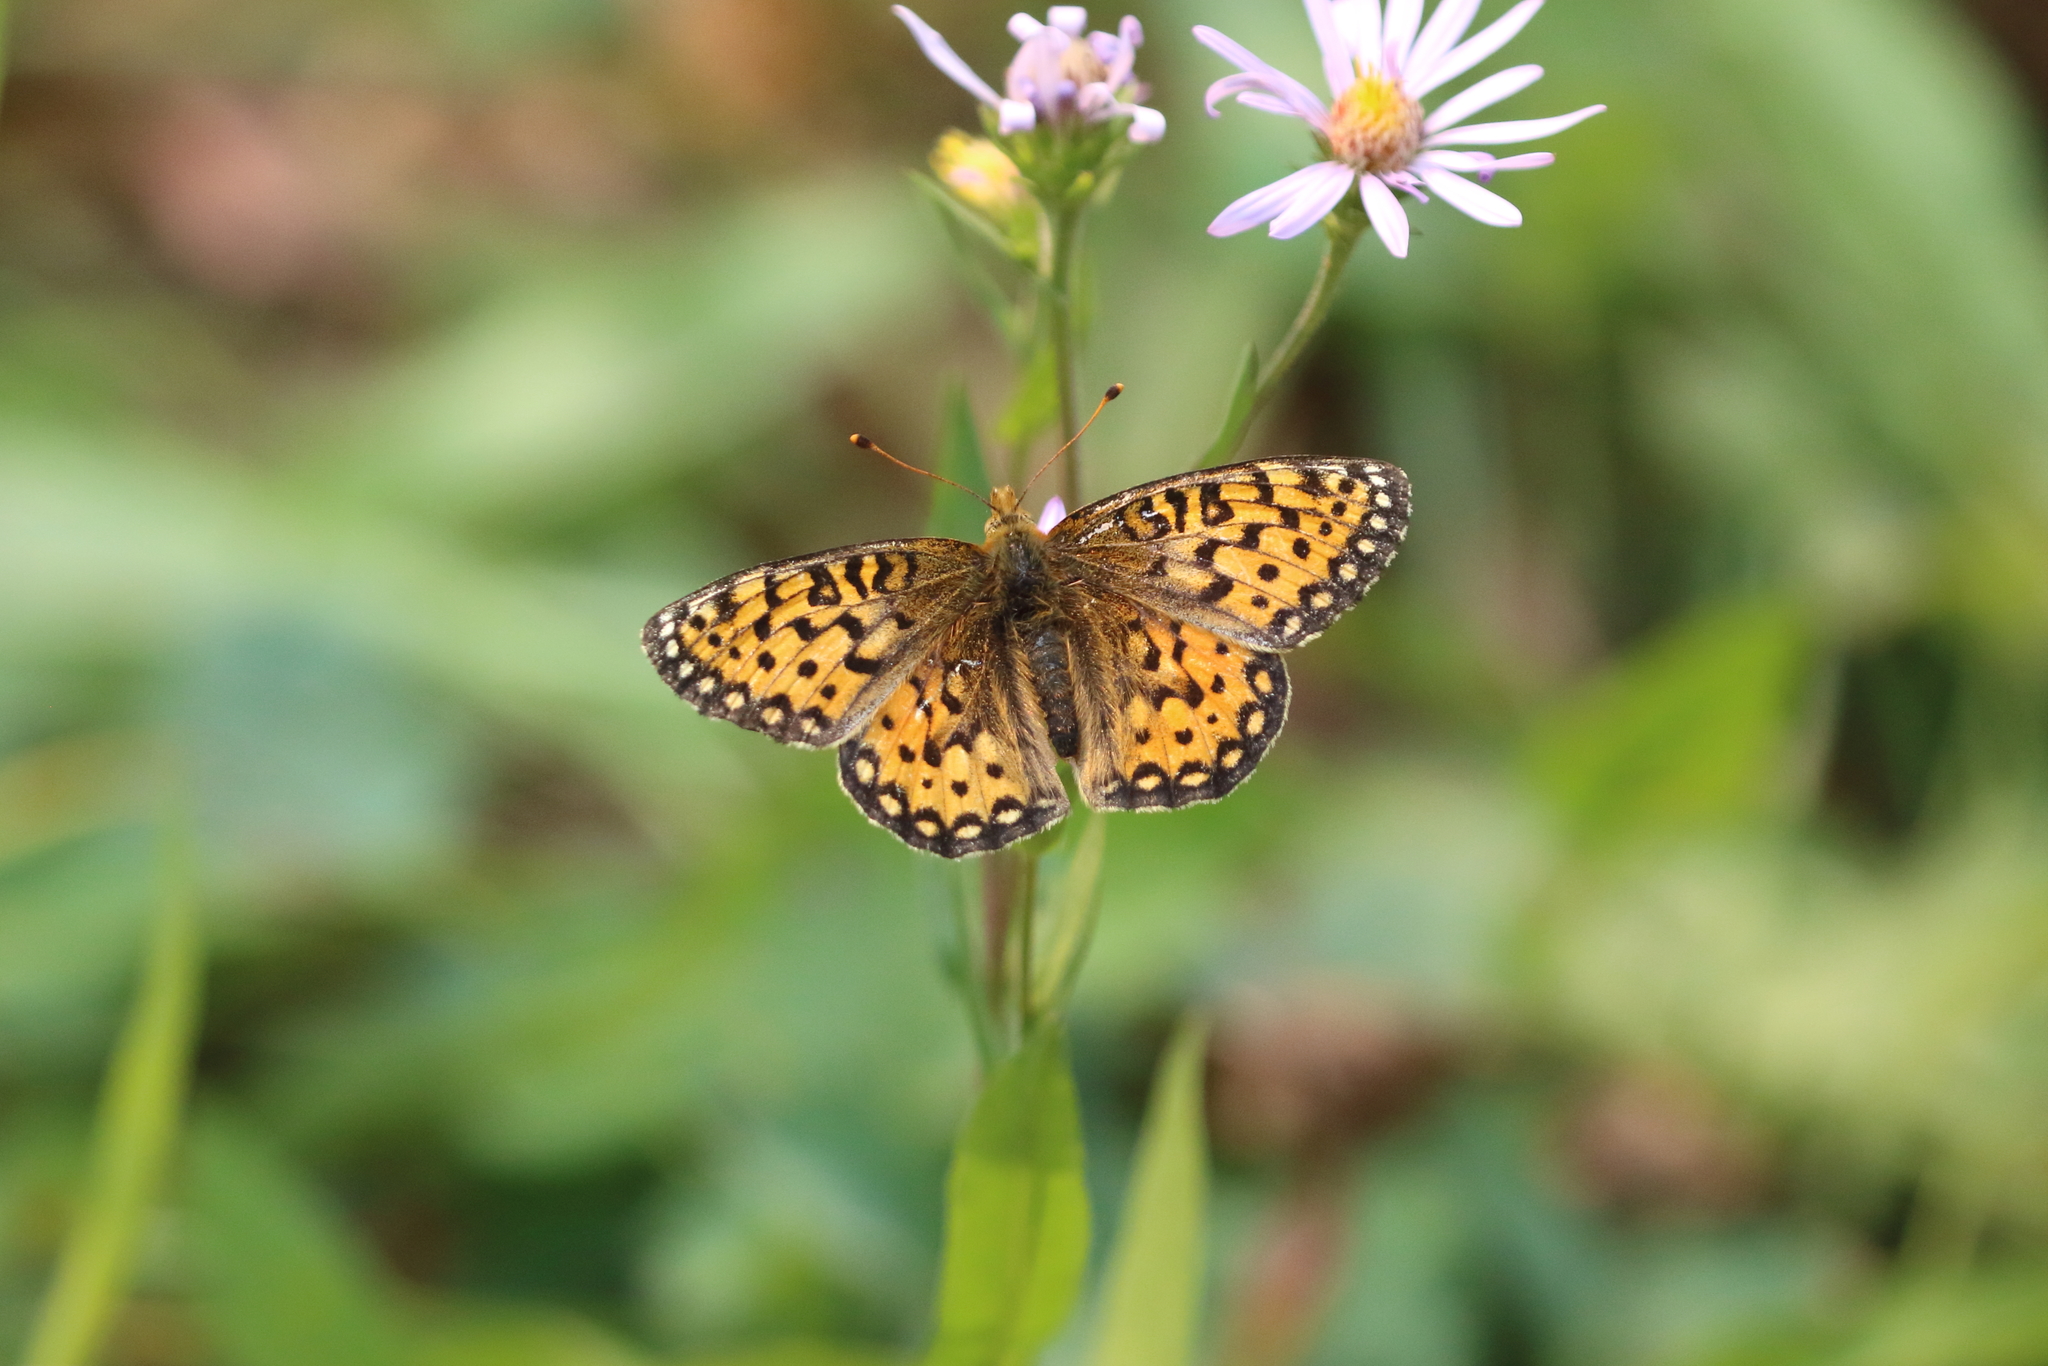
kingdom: Animalia
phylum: Arthropoda
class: Insecta
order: Lepidoptera
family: Nymphalidae
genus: Speyeria
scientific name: Speyeria mormonia
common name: Mormon fritillary
